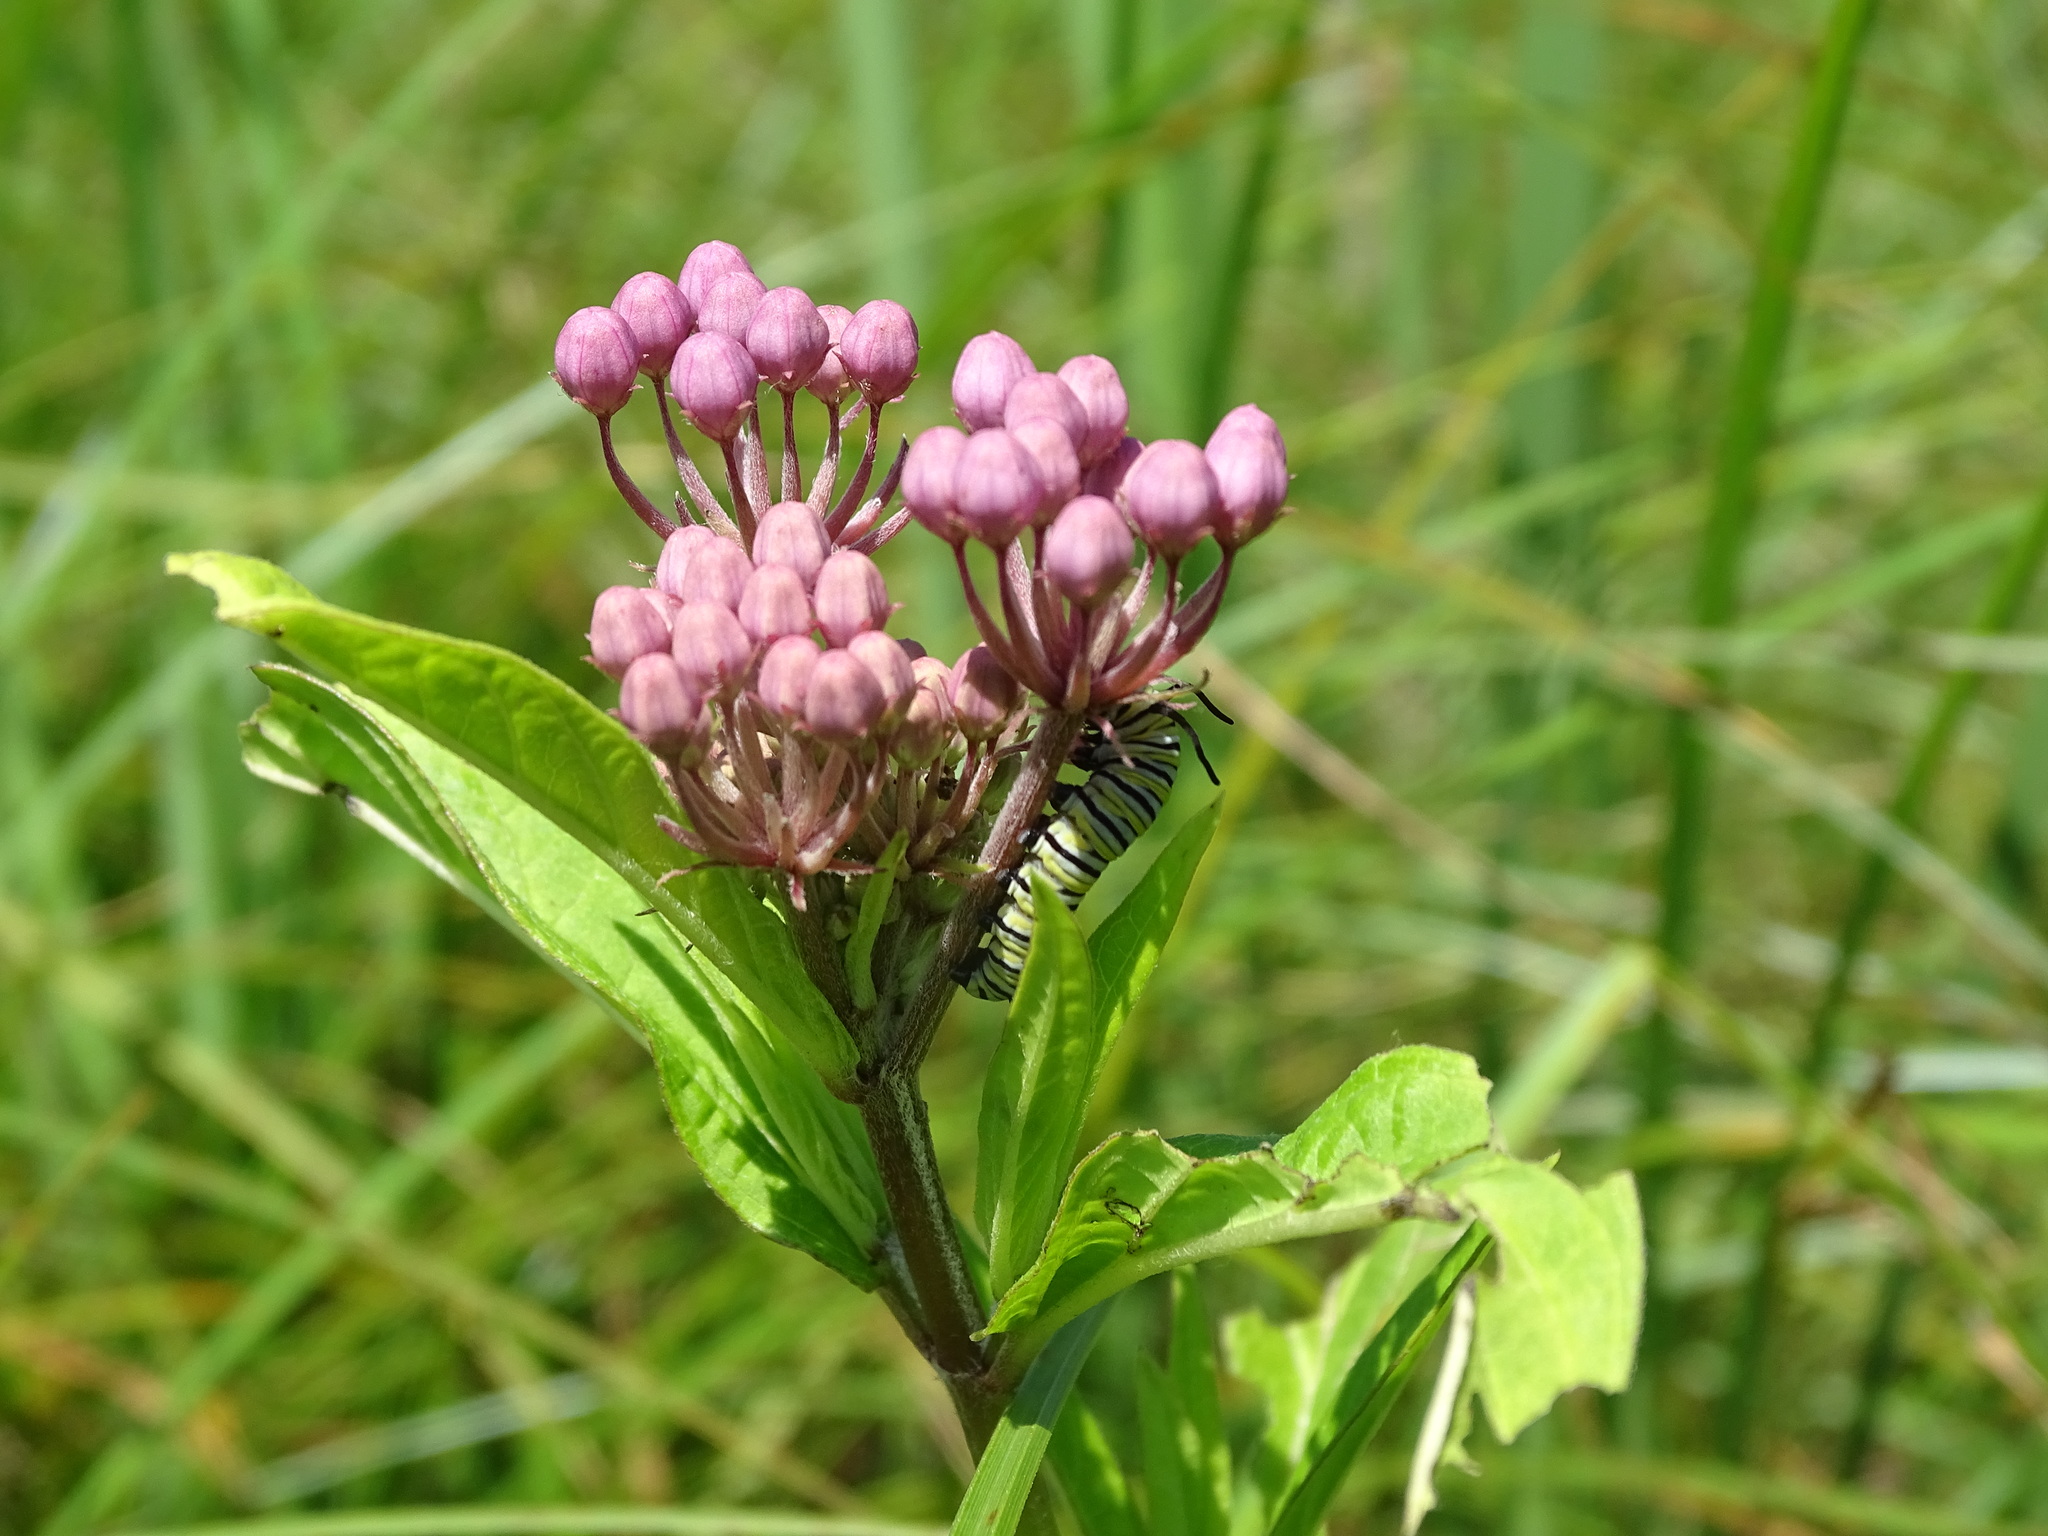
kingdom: Animalia
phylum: Arthropoda
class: Insecta
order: Lepidoptera
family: Nymphalidae
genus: Danaus
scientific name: Danaus plexippus
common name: Monarch
